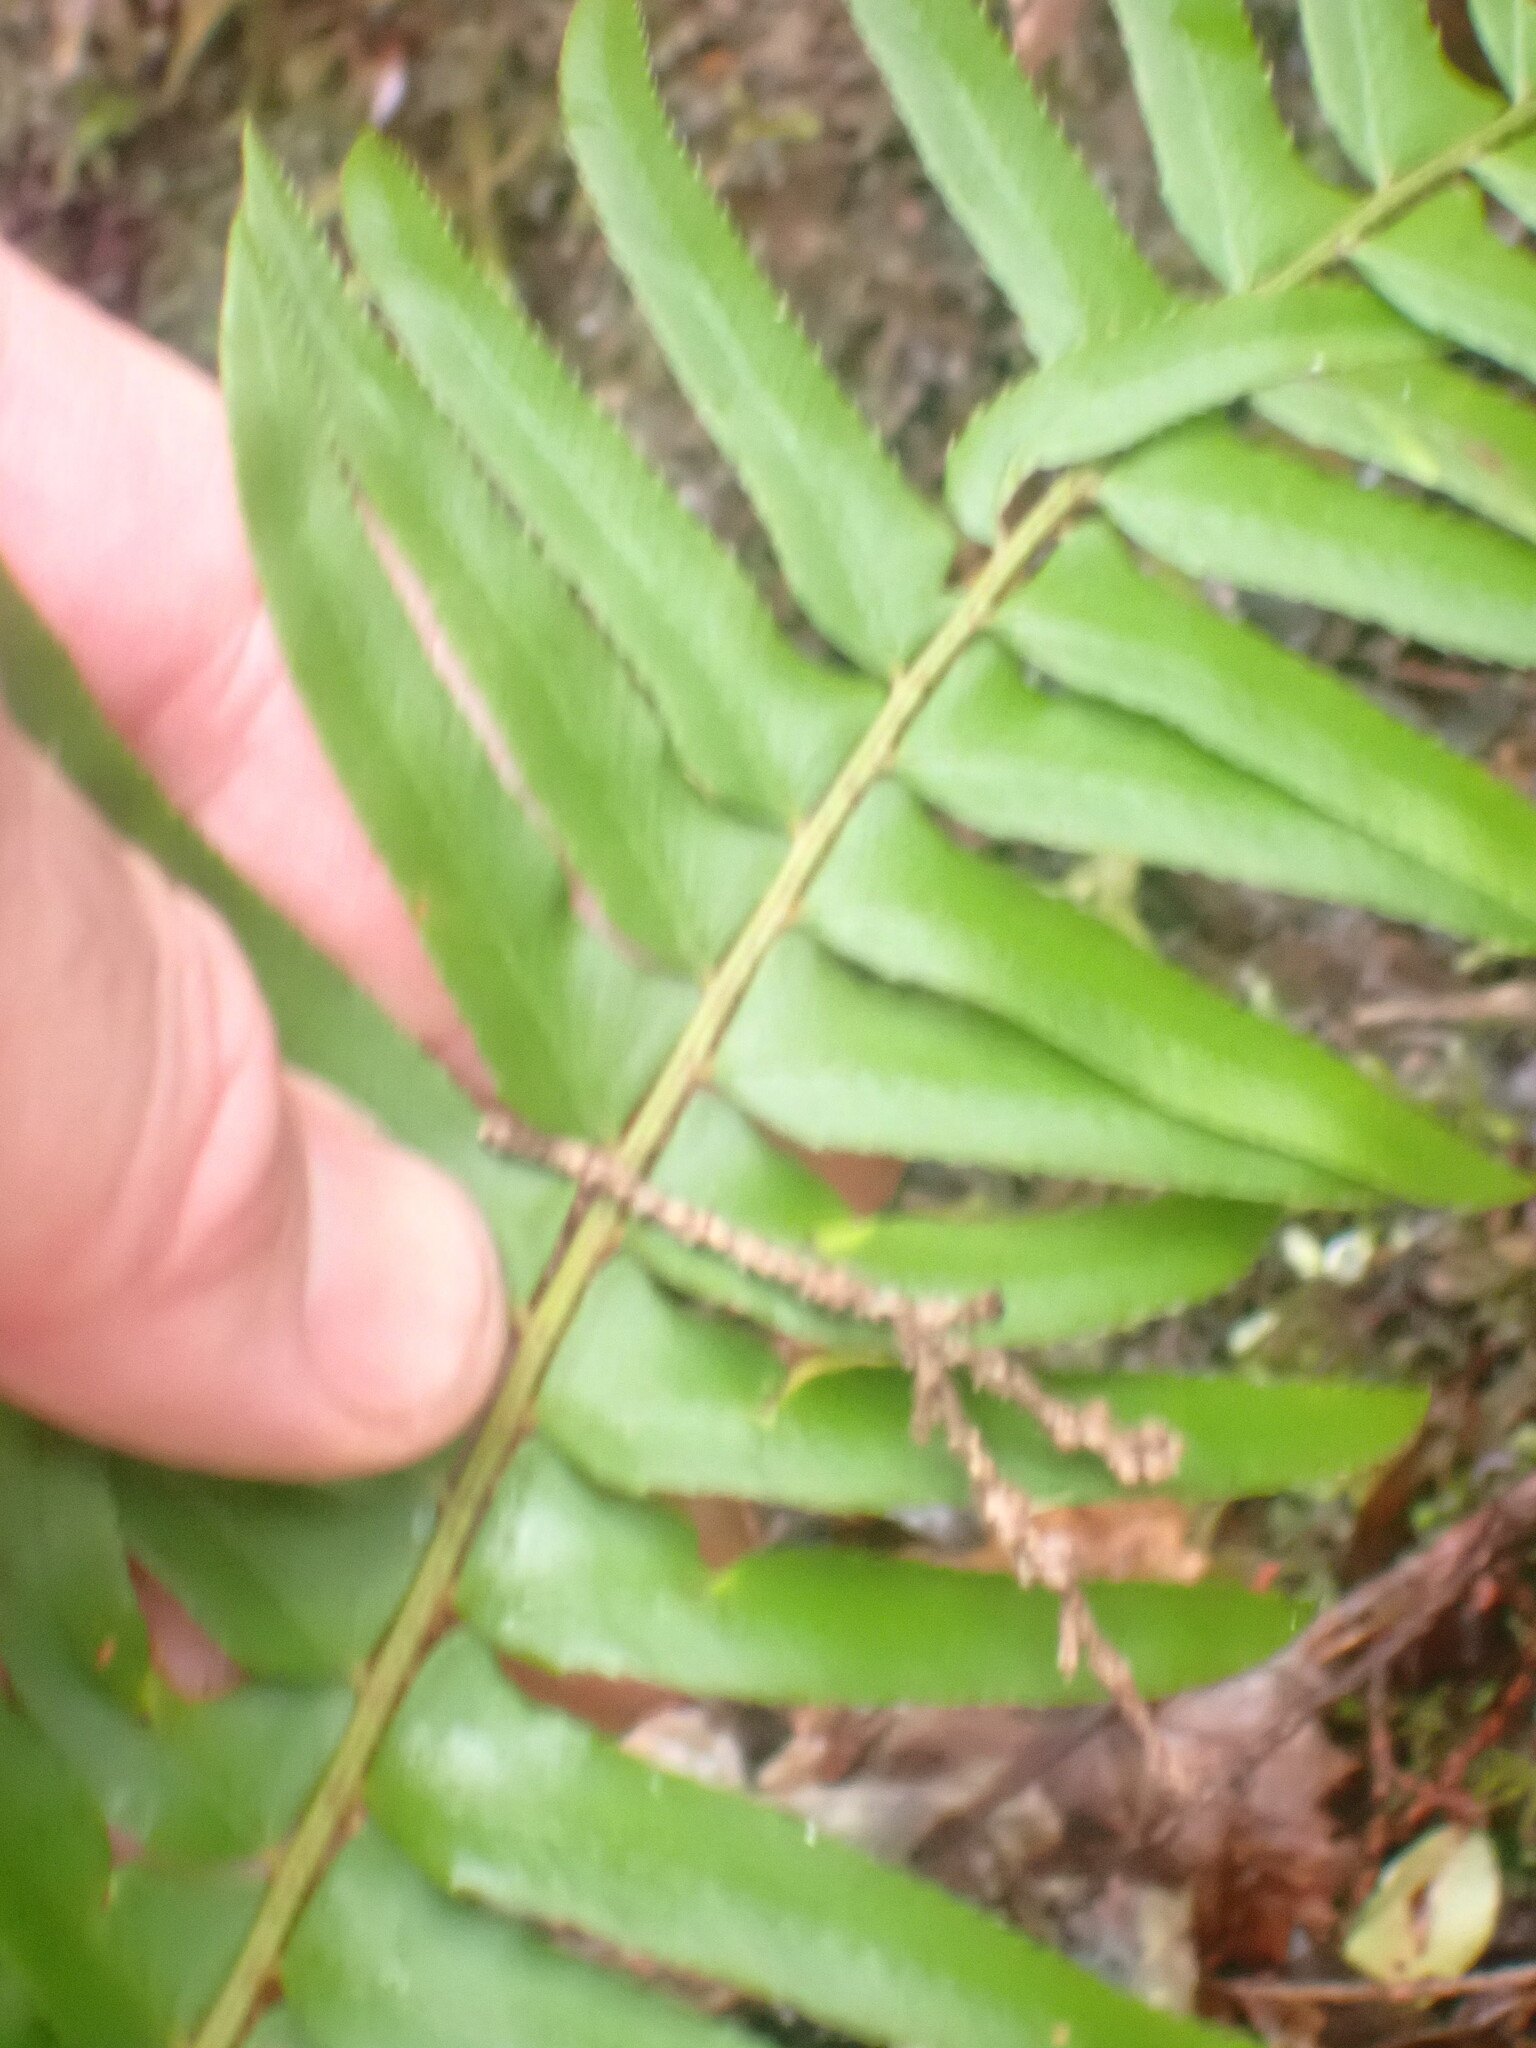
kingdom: Plantae
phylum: Tracheophyta
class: Polypodiopsida
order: Polypodiales
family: Dryopteridaceae
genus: Polystichum
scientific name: Polystichum munitum
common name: Western sword-fern
